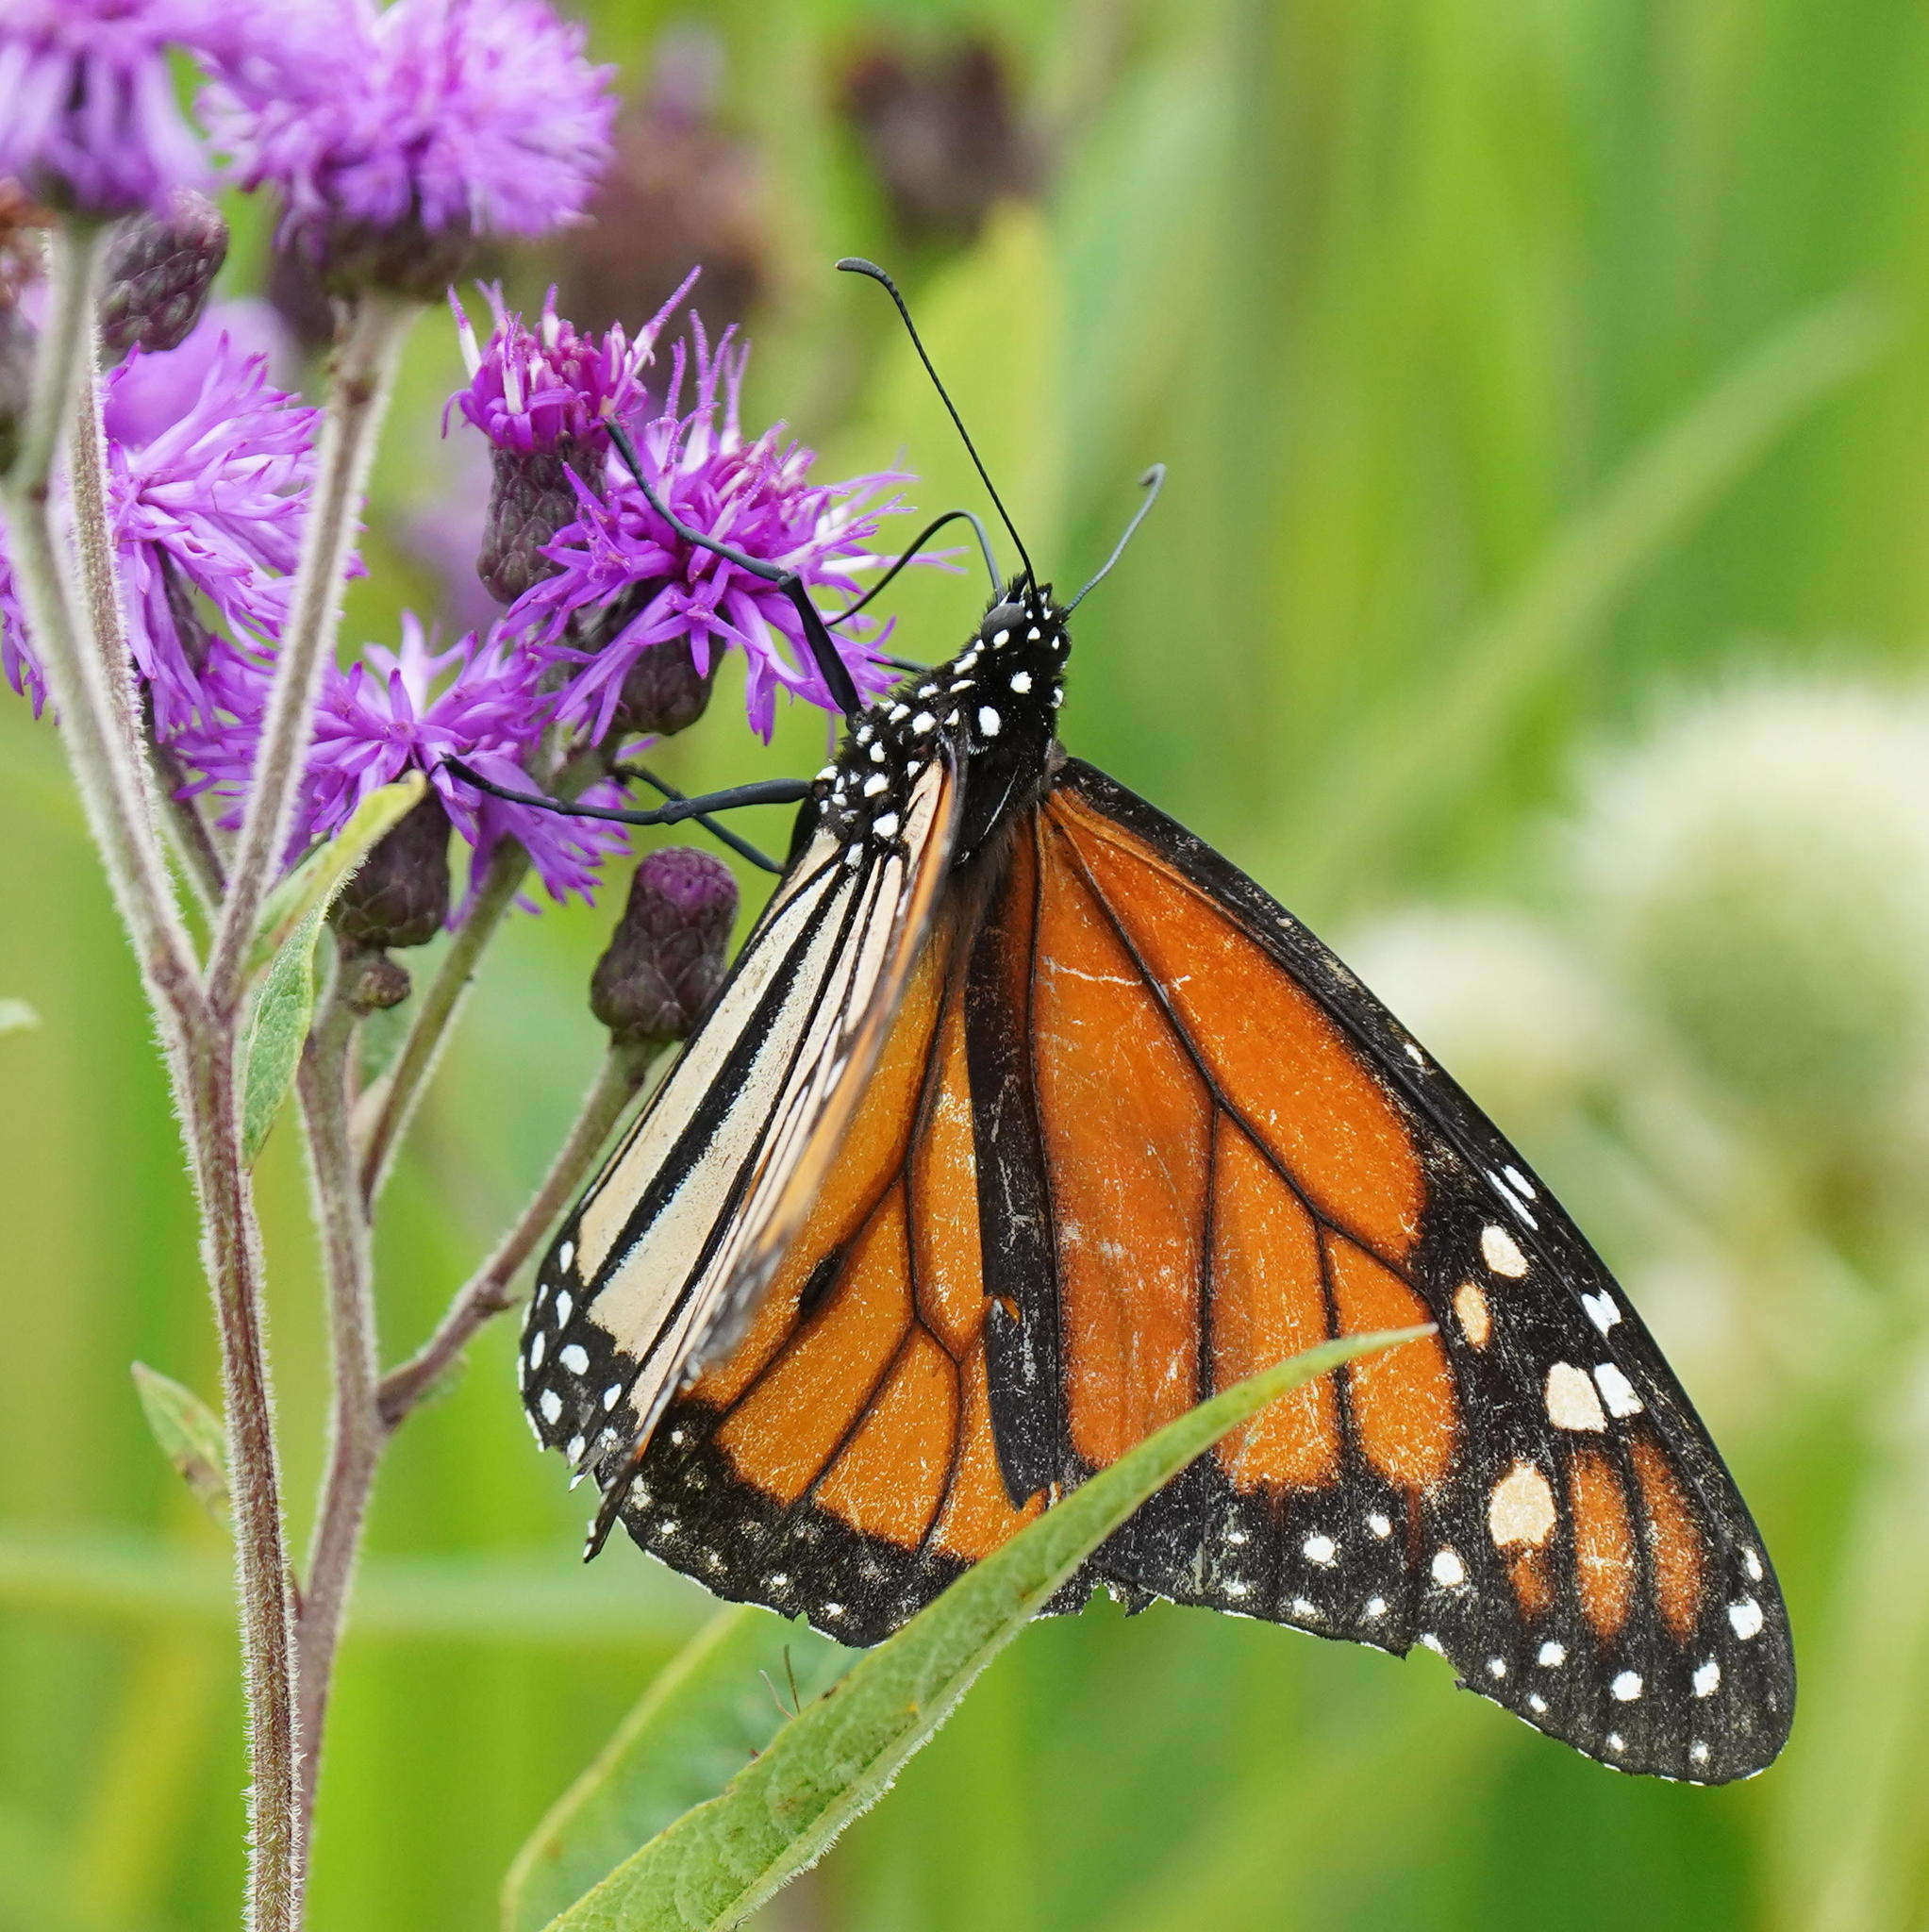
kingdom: Animalia
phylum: Arthropoda
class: Insecta
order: Lepidoptera
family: Nymphalidae
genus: Danaus
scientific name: Danaus plexippus
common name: Monarch
